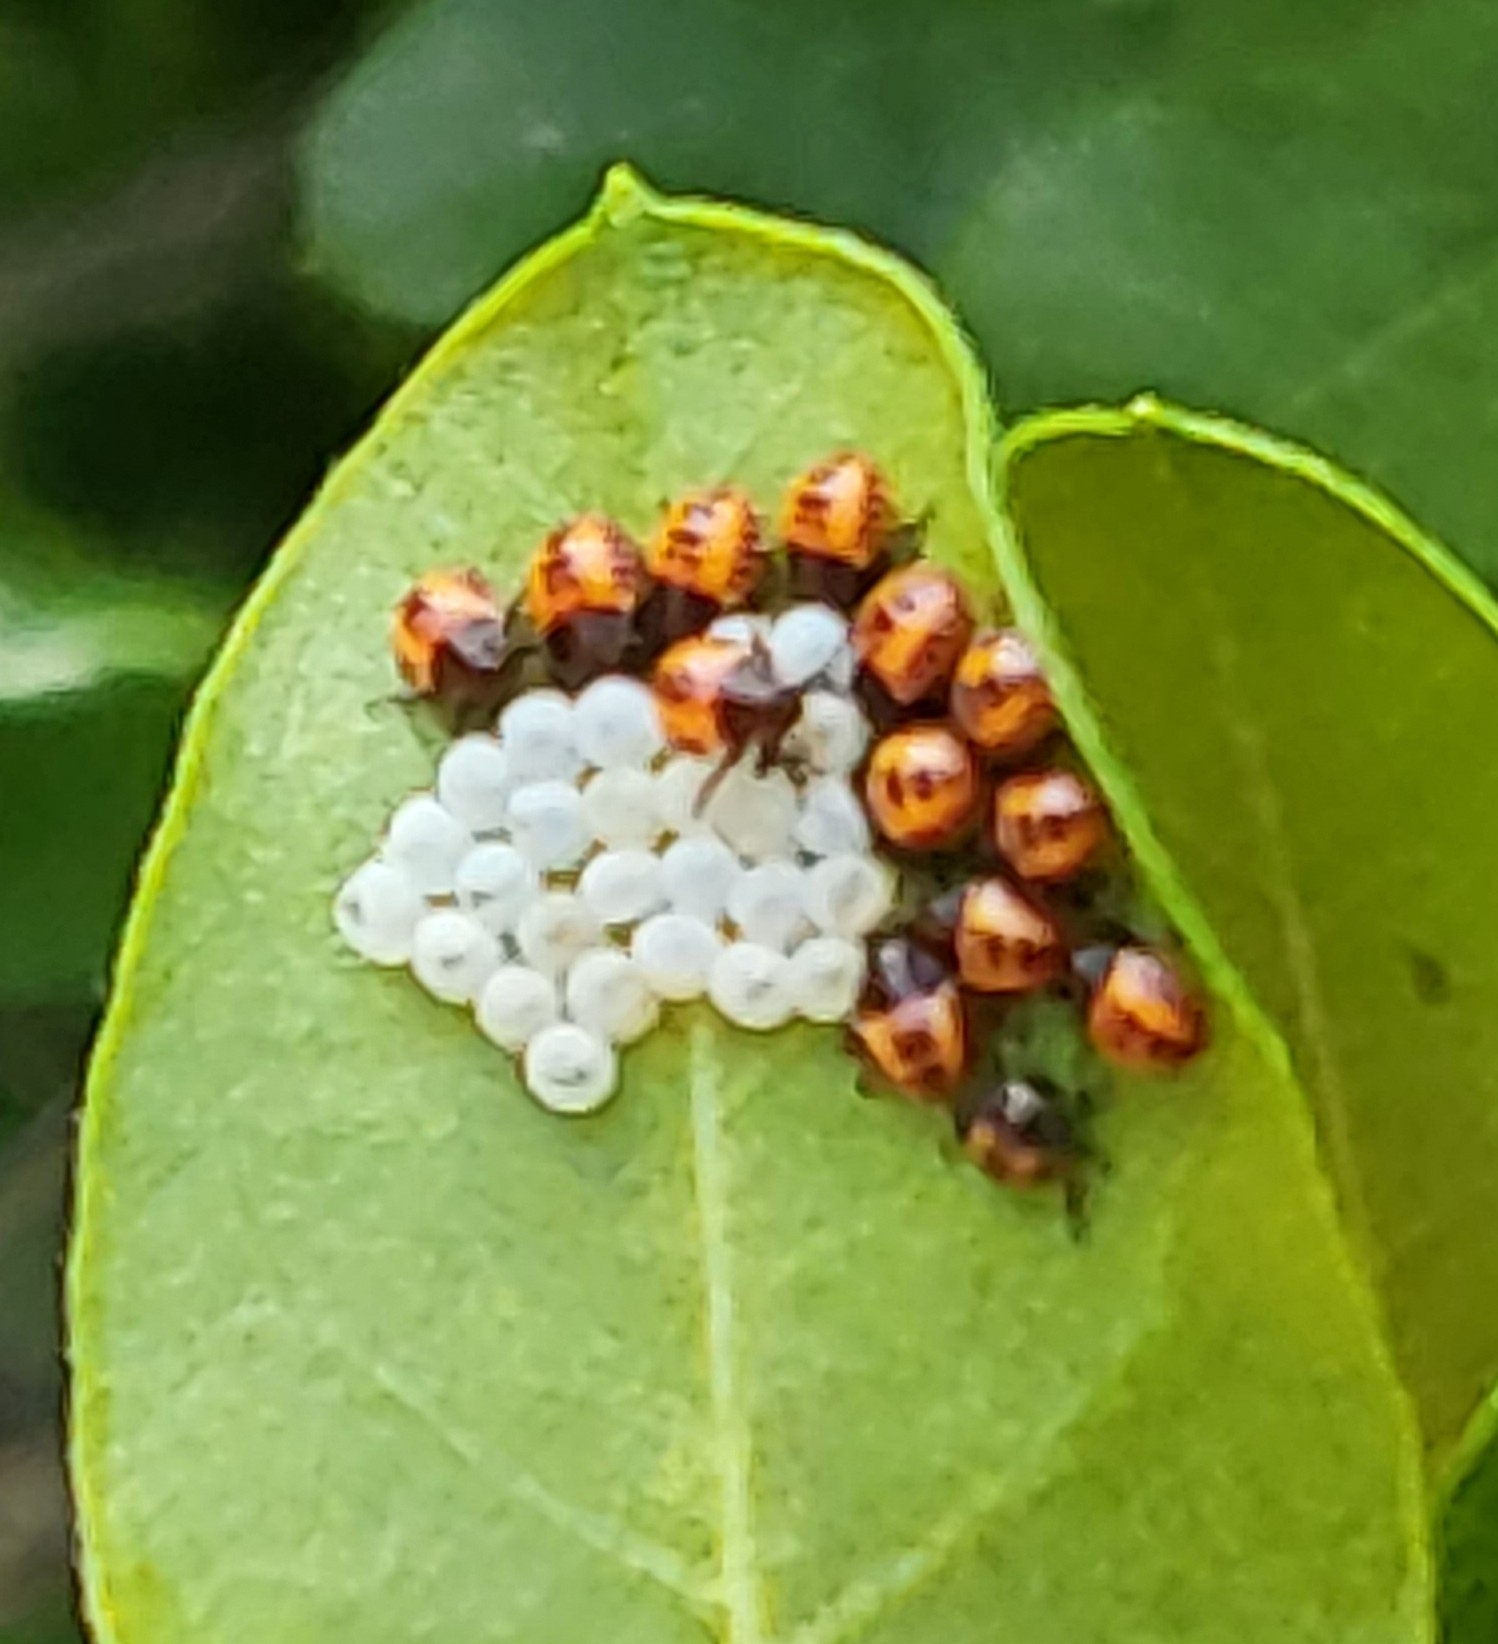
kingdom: Animalia
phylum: Arthropoda
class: Insecta
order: Hemiptera
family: Pentatomidae
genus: Halyomorpha
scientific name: Halyomorpha halys
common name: Brown marmorated stink bug
